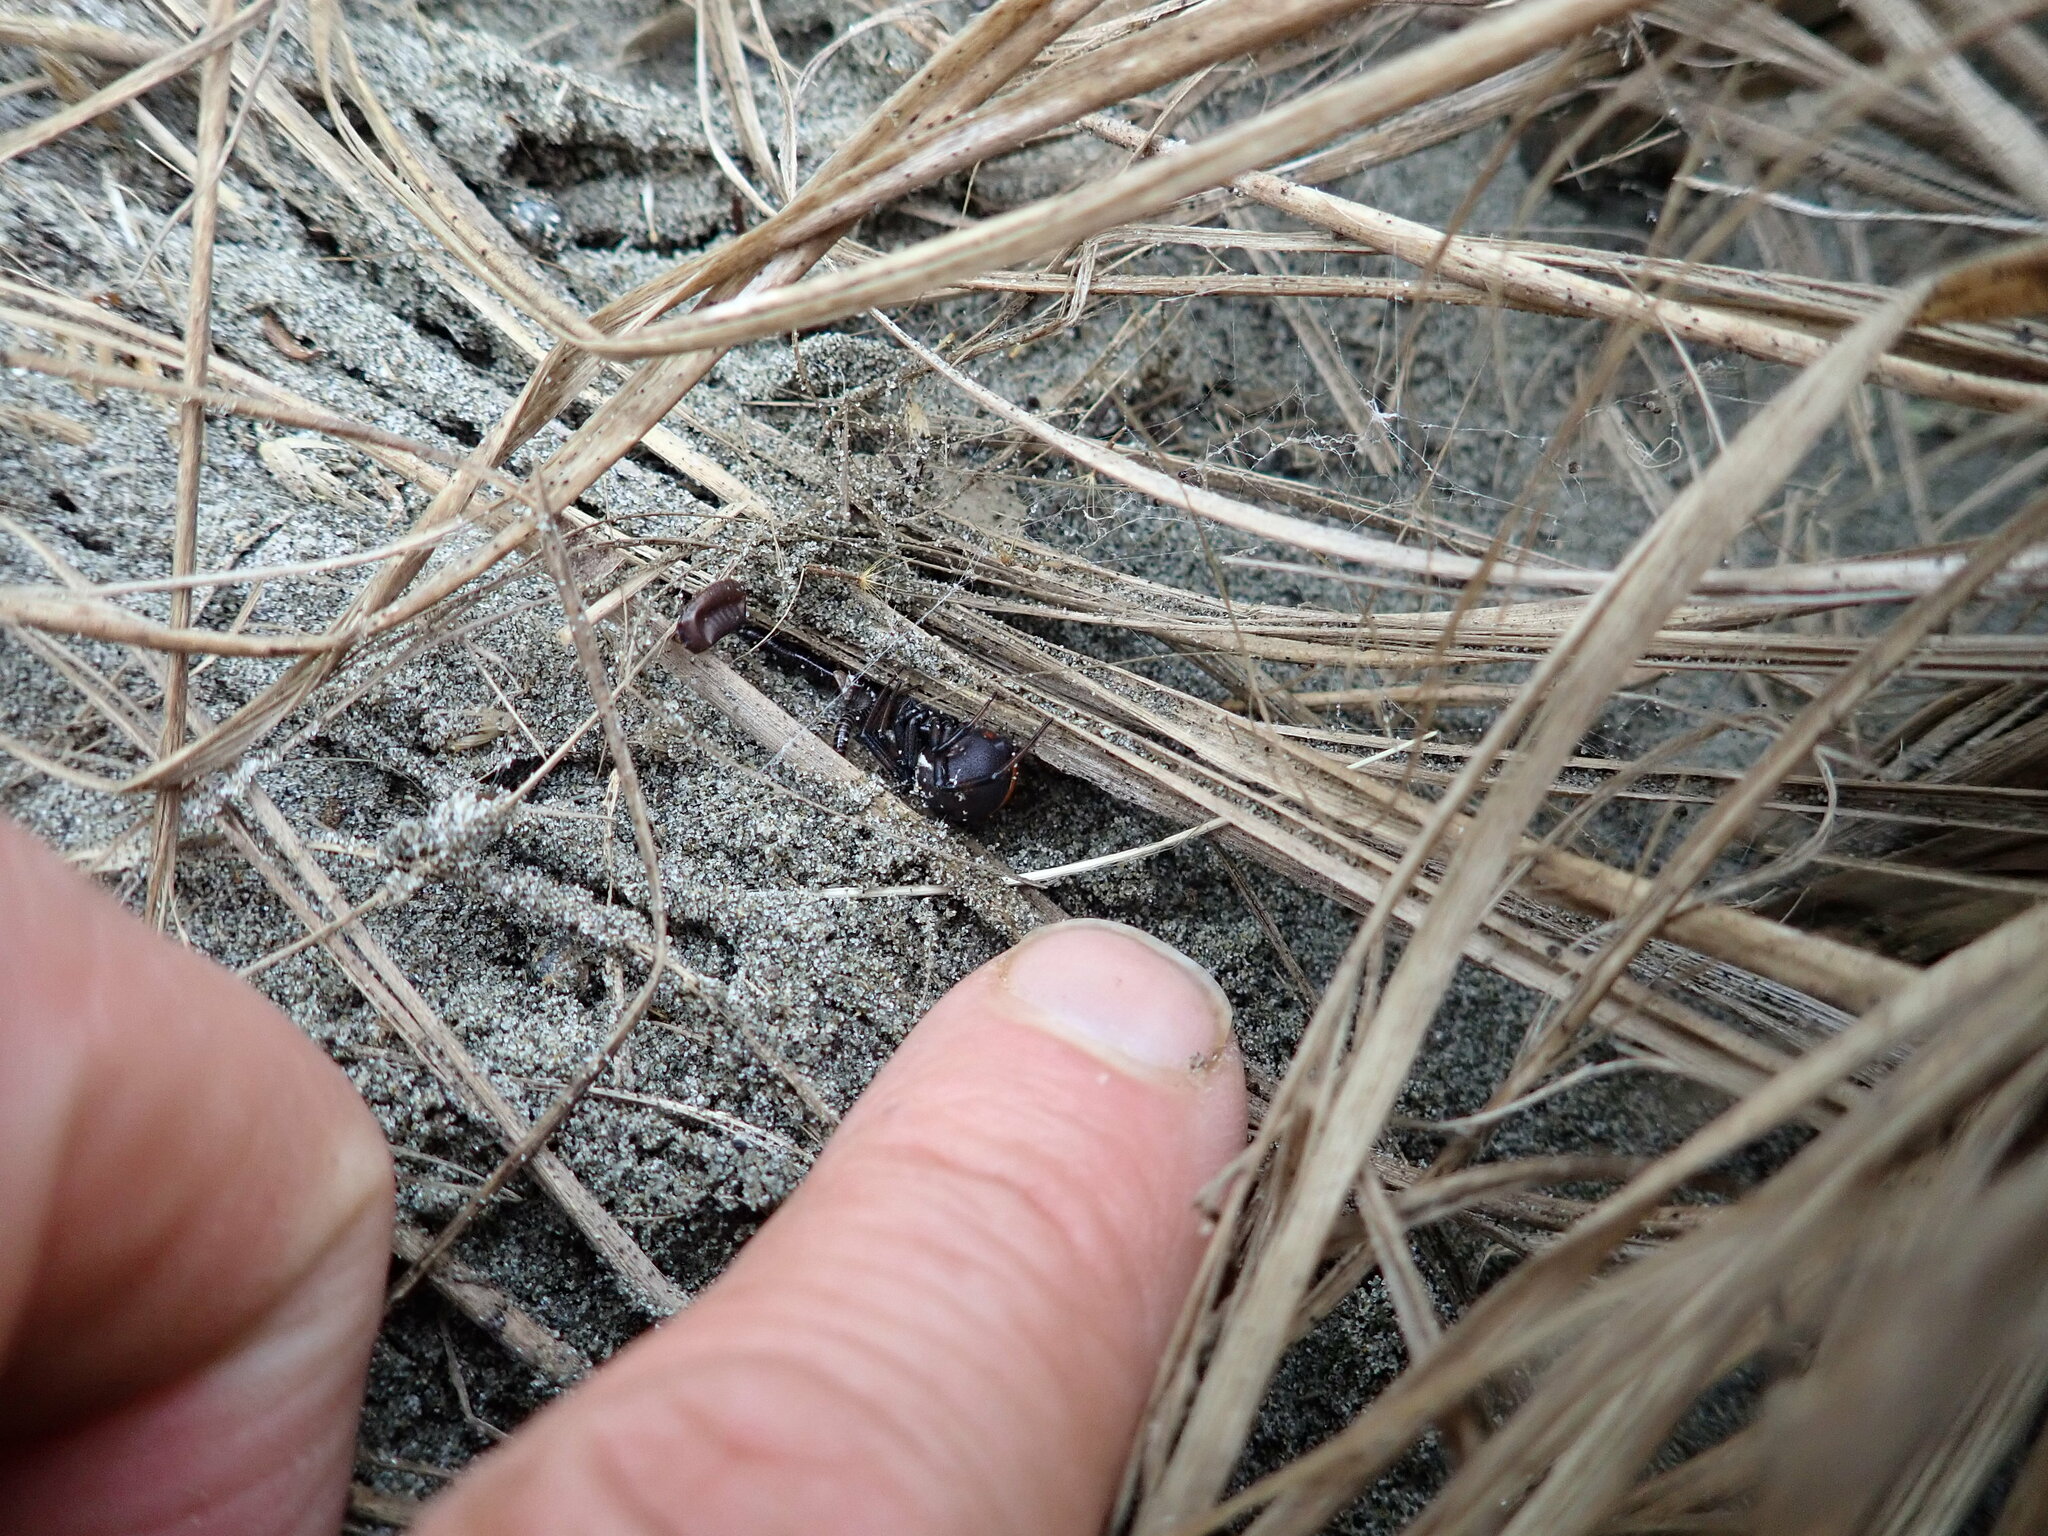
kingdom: Animalia
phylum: Arthropoda
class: Arachnida
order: Araneae
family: Theridiidae
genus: Latrodectus
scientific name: Latrodectus katipo
